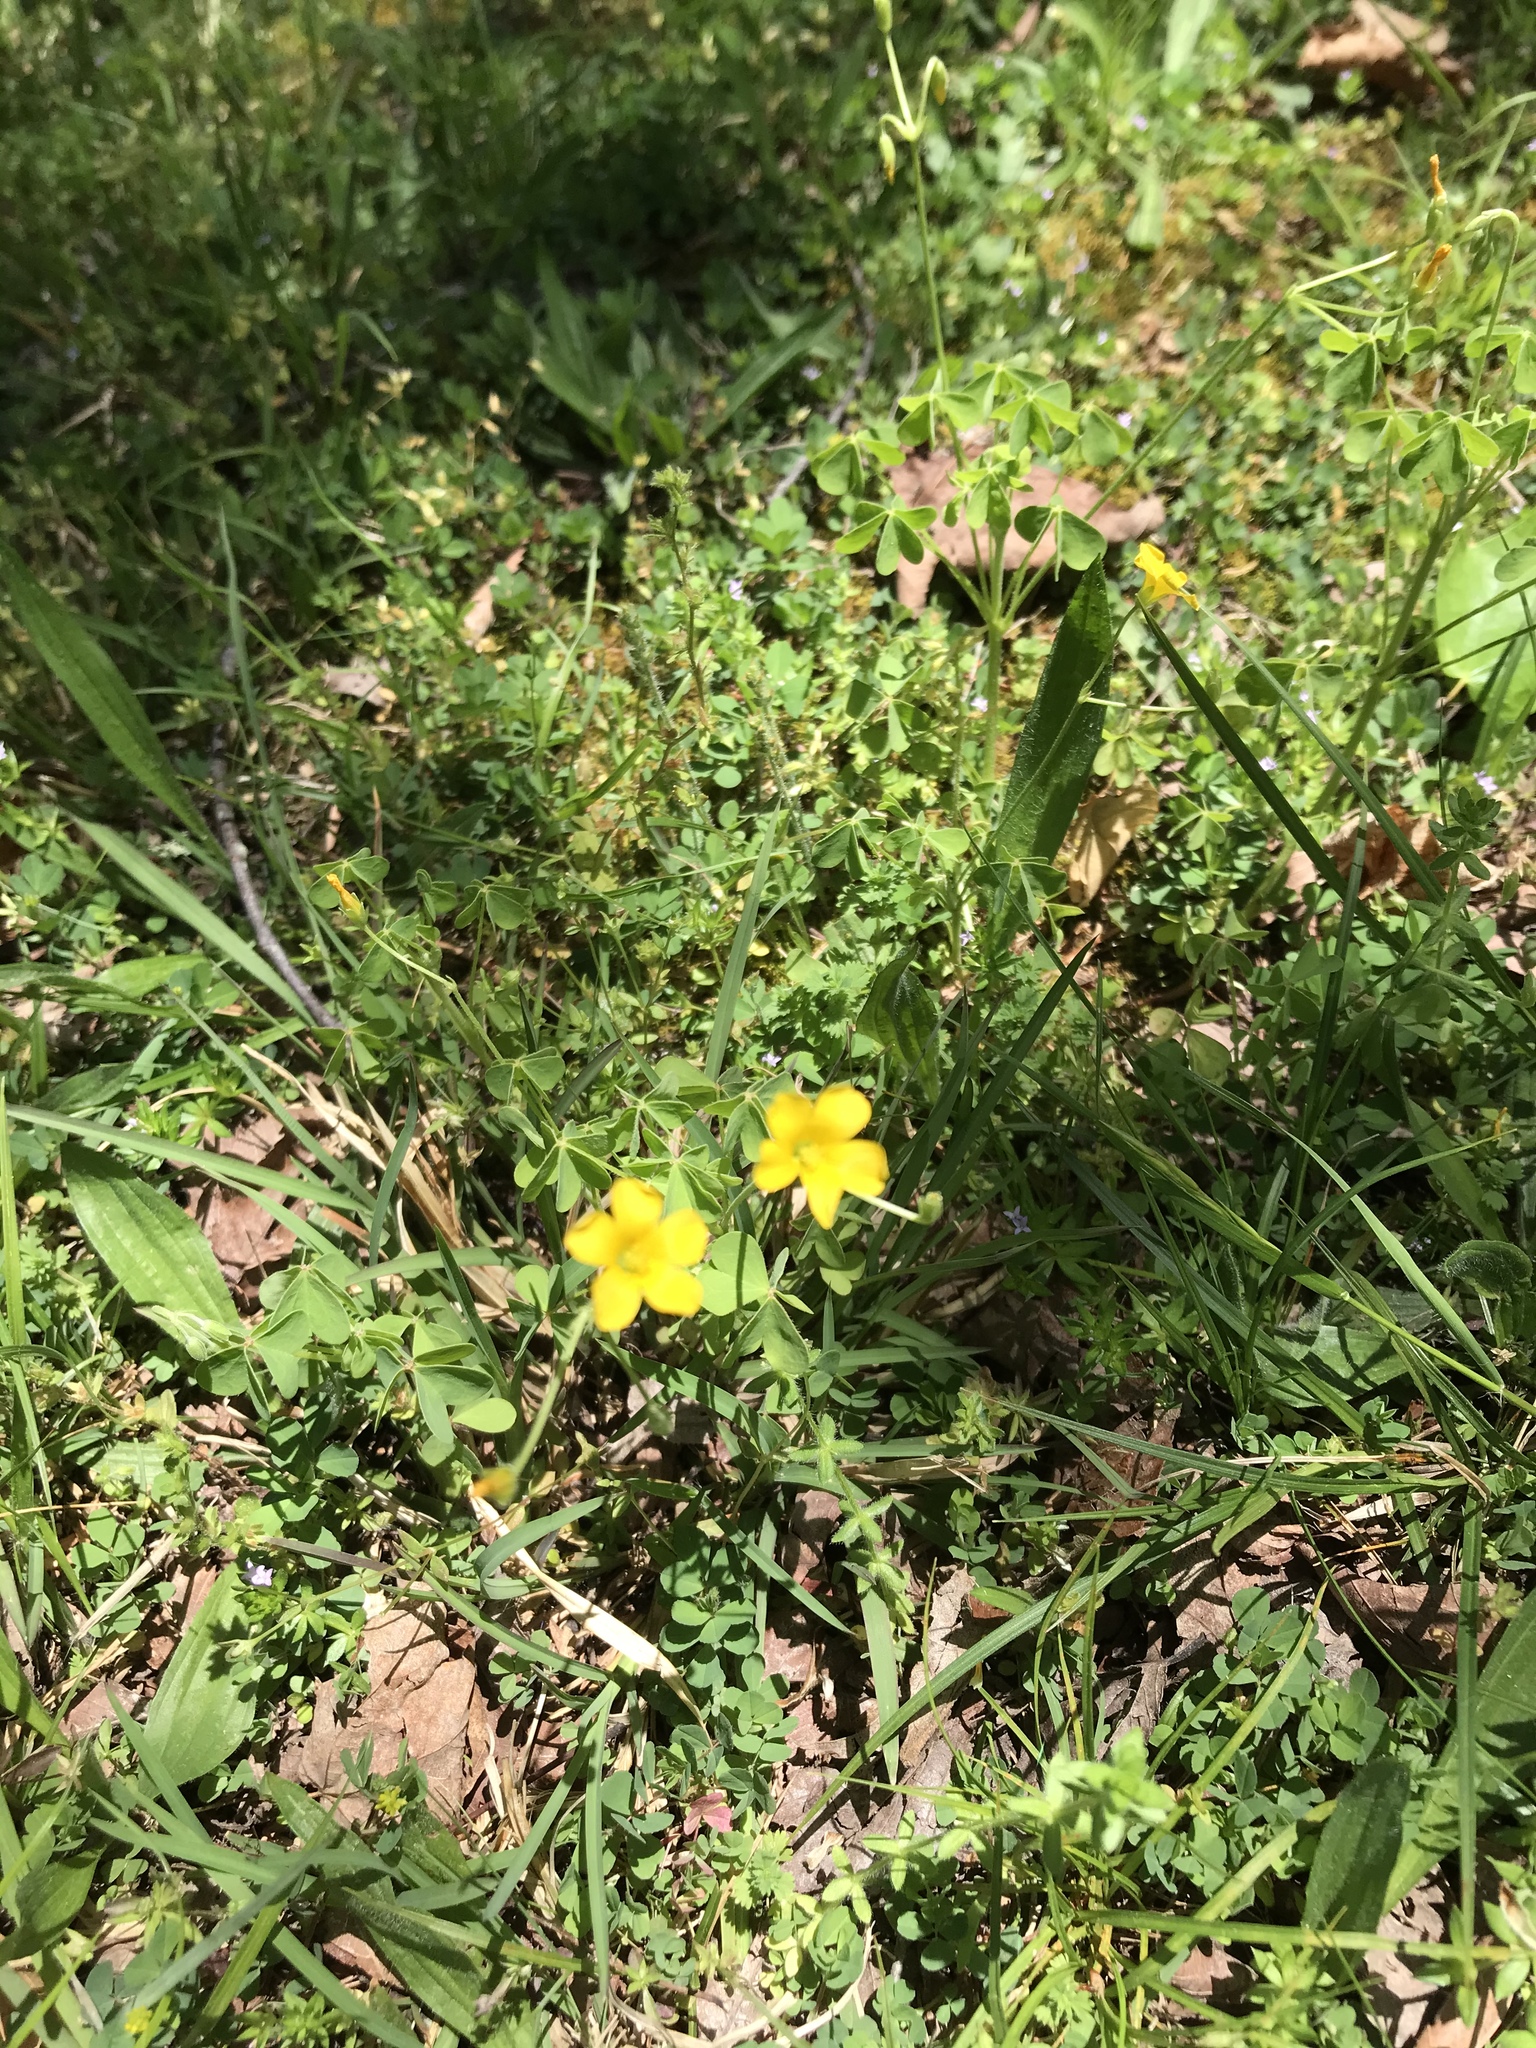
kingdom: Plantae
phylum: Tracheophyta
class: Magnoliopsida
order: Oxalidales
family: Oxalidaceae
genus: Oxalis
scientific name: Oxalis dillenii
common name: Sussex yellow-sorrel
